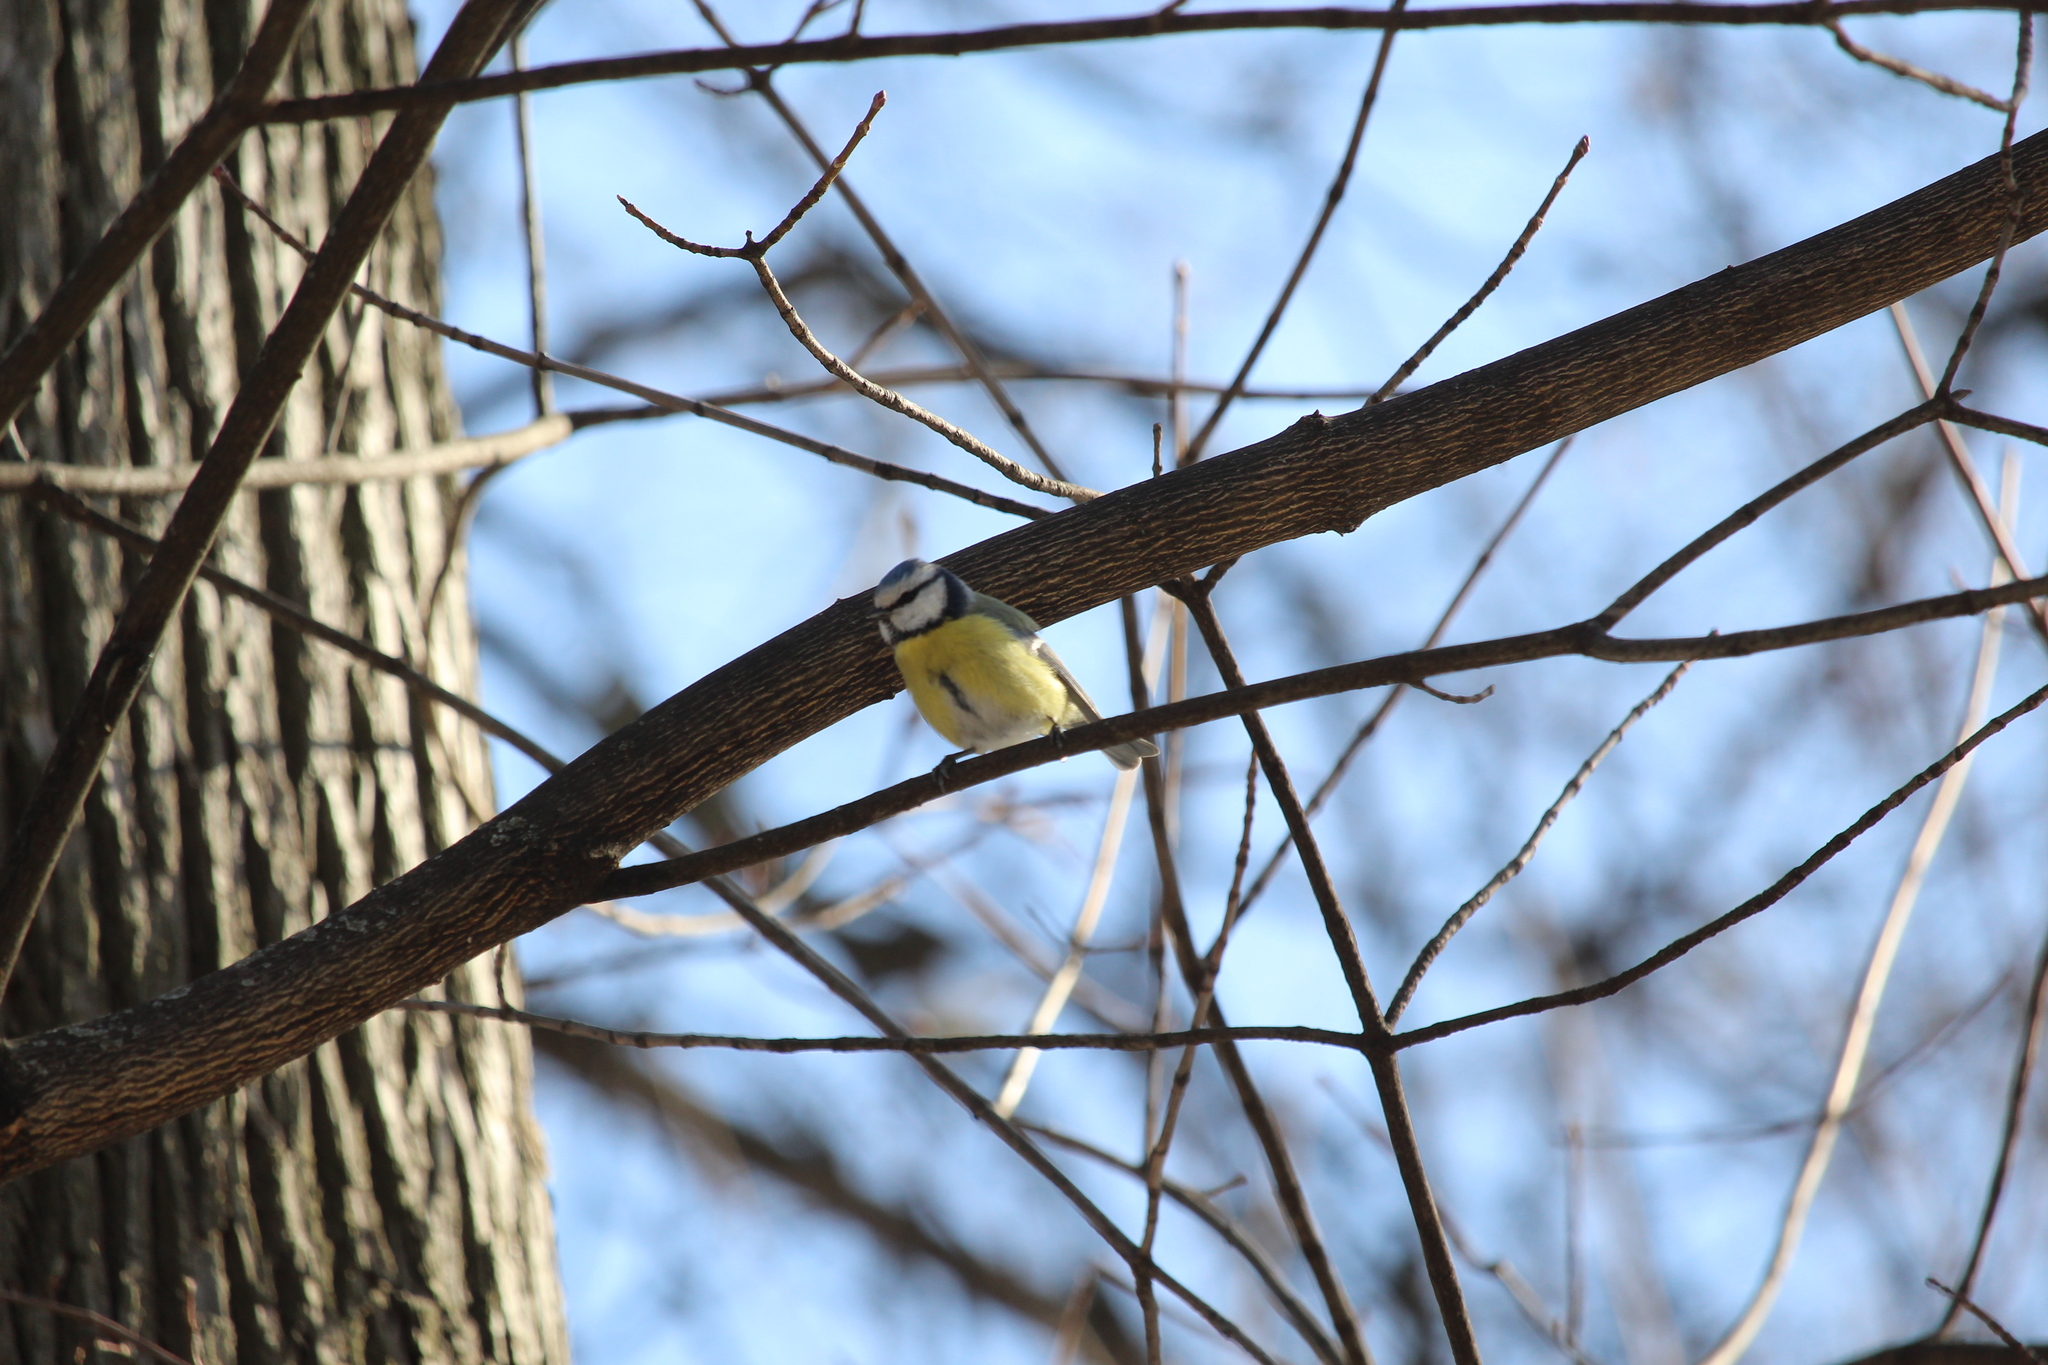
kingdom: Animalia
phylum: Chordata
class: Aves
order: Passeriformes
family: Paridae
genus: Cyanistes
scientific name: Cyanistes caeruleus
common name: Eurasian blue tit
